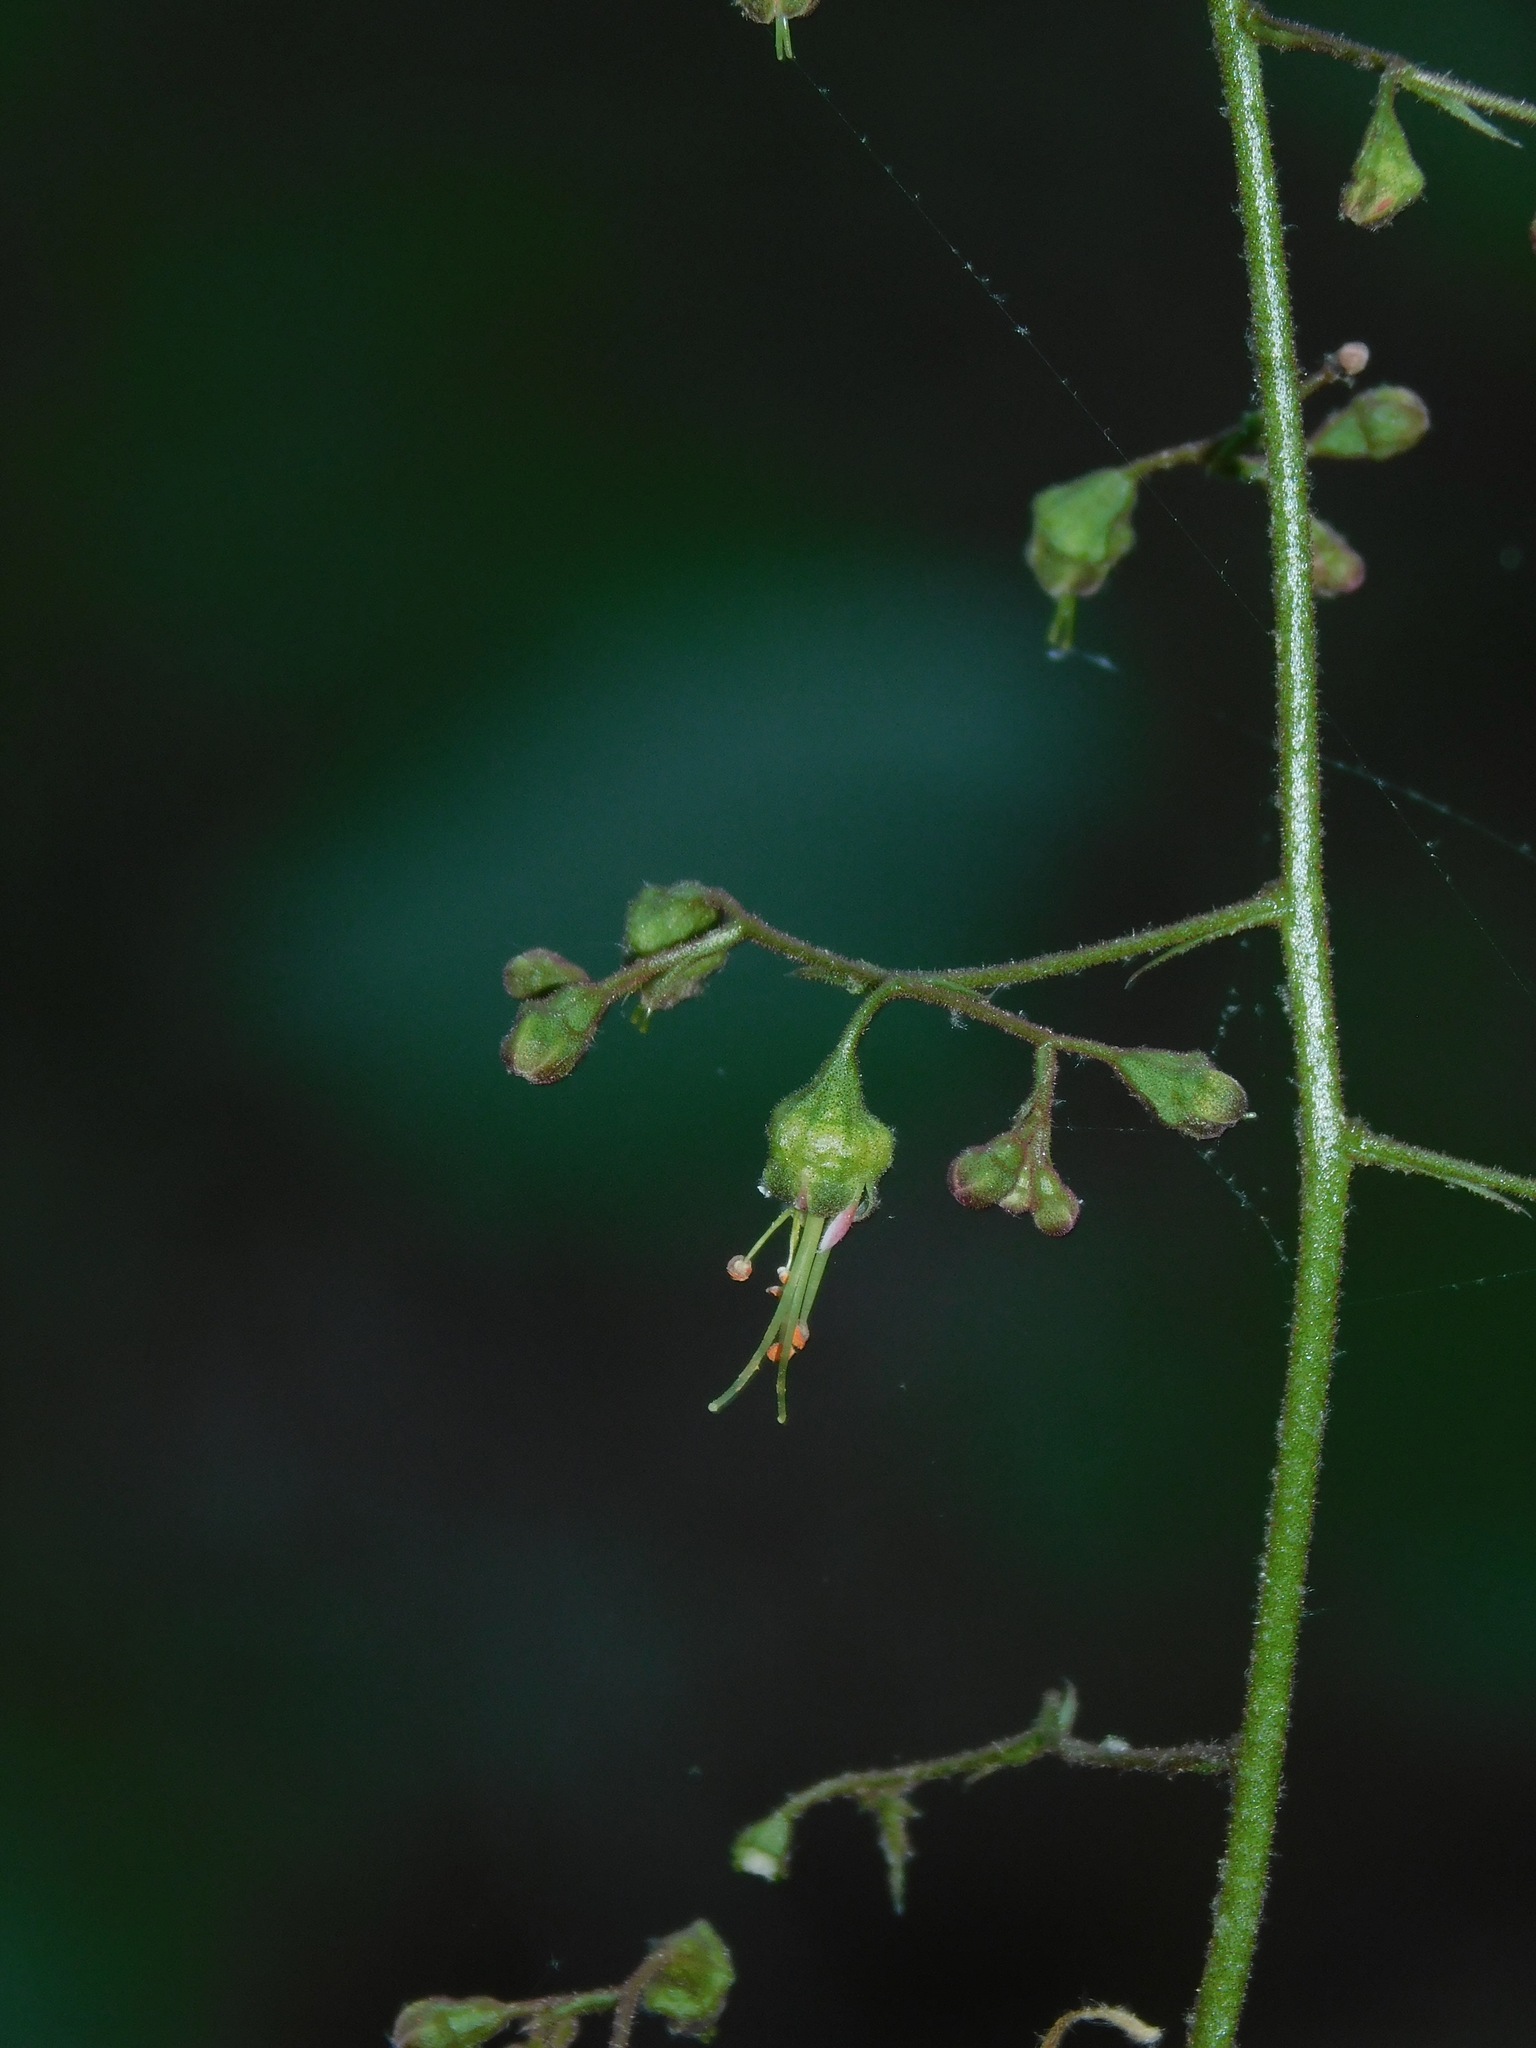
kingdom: Plantae
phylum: Tracheophyta
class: Magnoliopsida
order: Saxifragales
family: Saxifragaceae
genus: Heuchera
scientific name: Heuchera americana
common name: Alumroot
